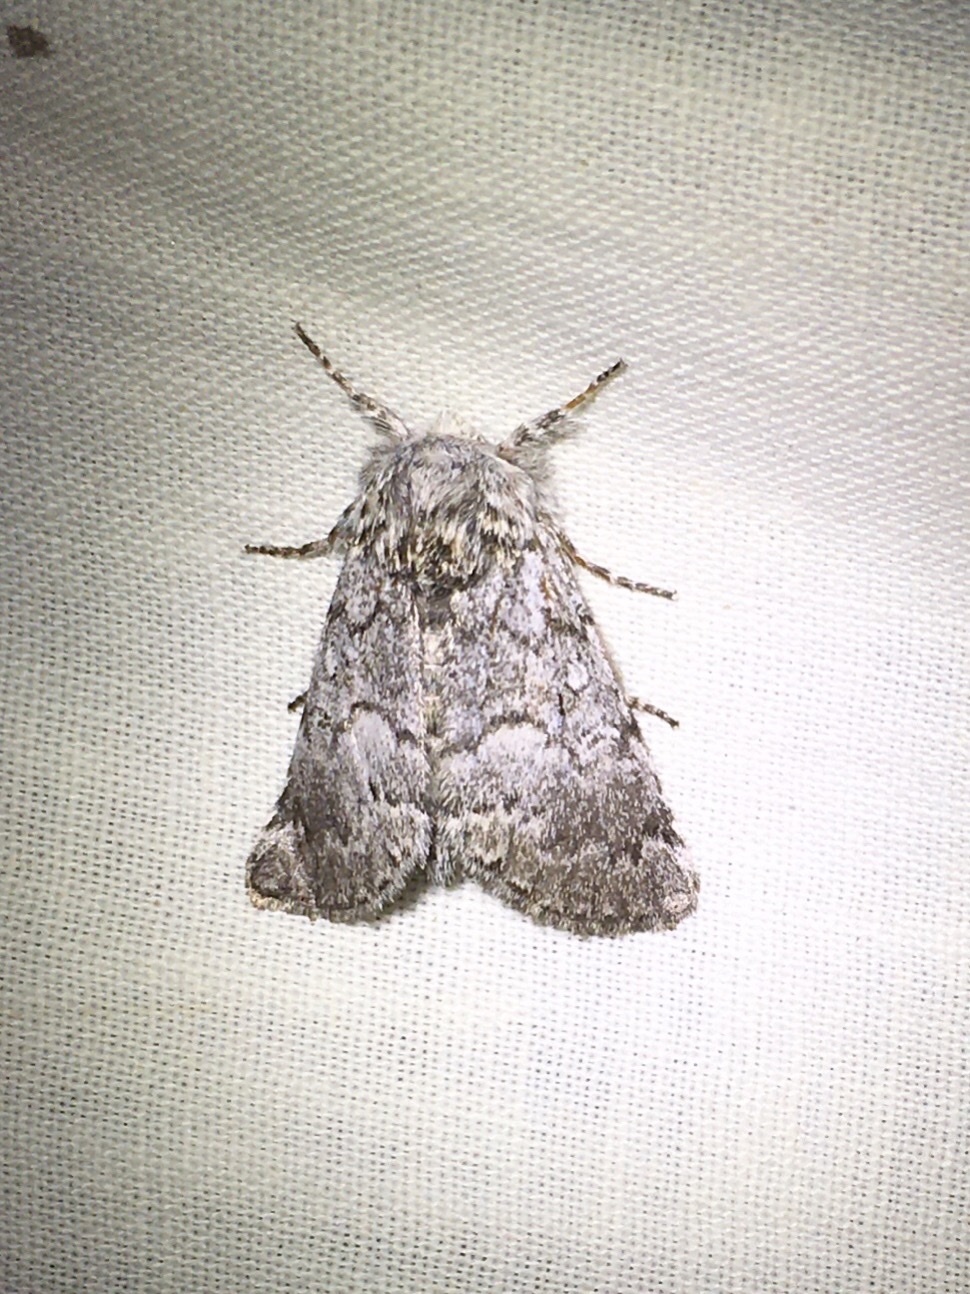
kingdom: Animalia
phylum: Arthropoda
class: Insecta
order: Lepidoptera
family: Noctuidae
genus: Colocasia
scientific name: Colocasia propinquilinea
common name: Close-banded demas
